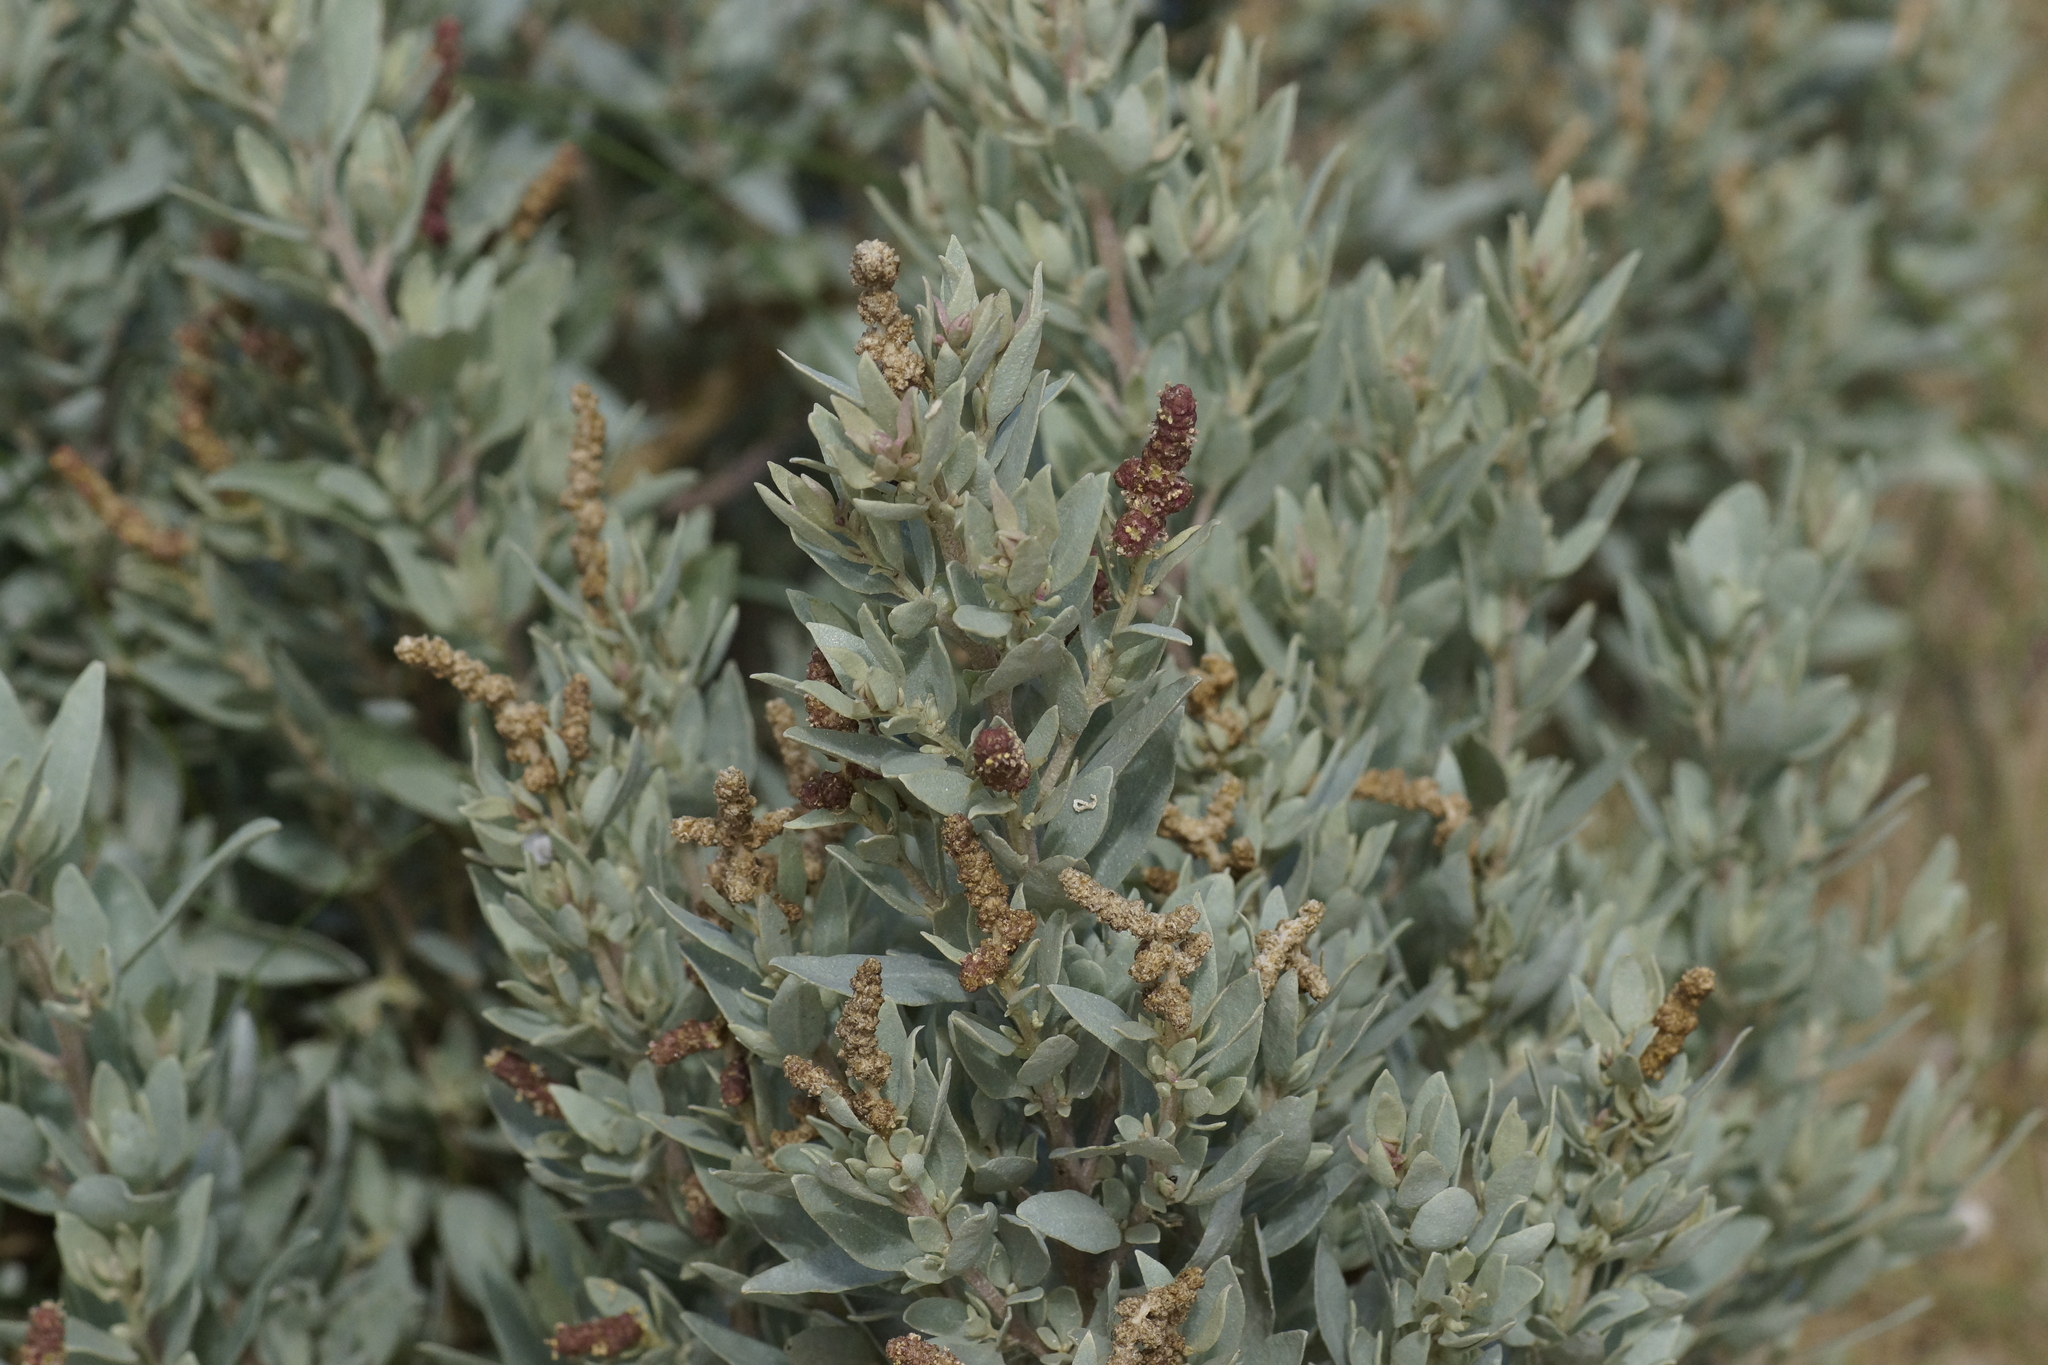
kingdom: Plantae
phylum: Tracheophyta
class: Magnoliopsida
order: Caryophyllales
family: Amaranthaceae
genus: Atriplex
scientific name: Atriplex cinerea
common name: Grey saltbush
